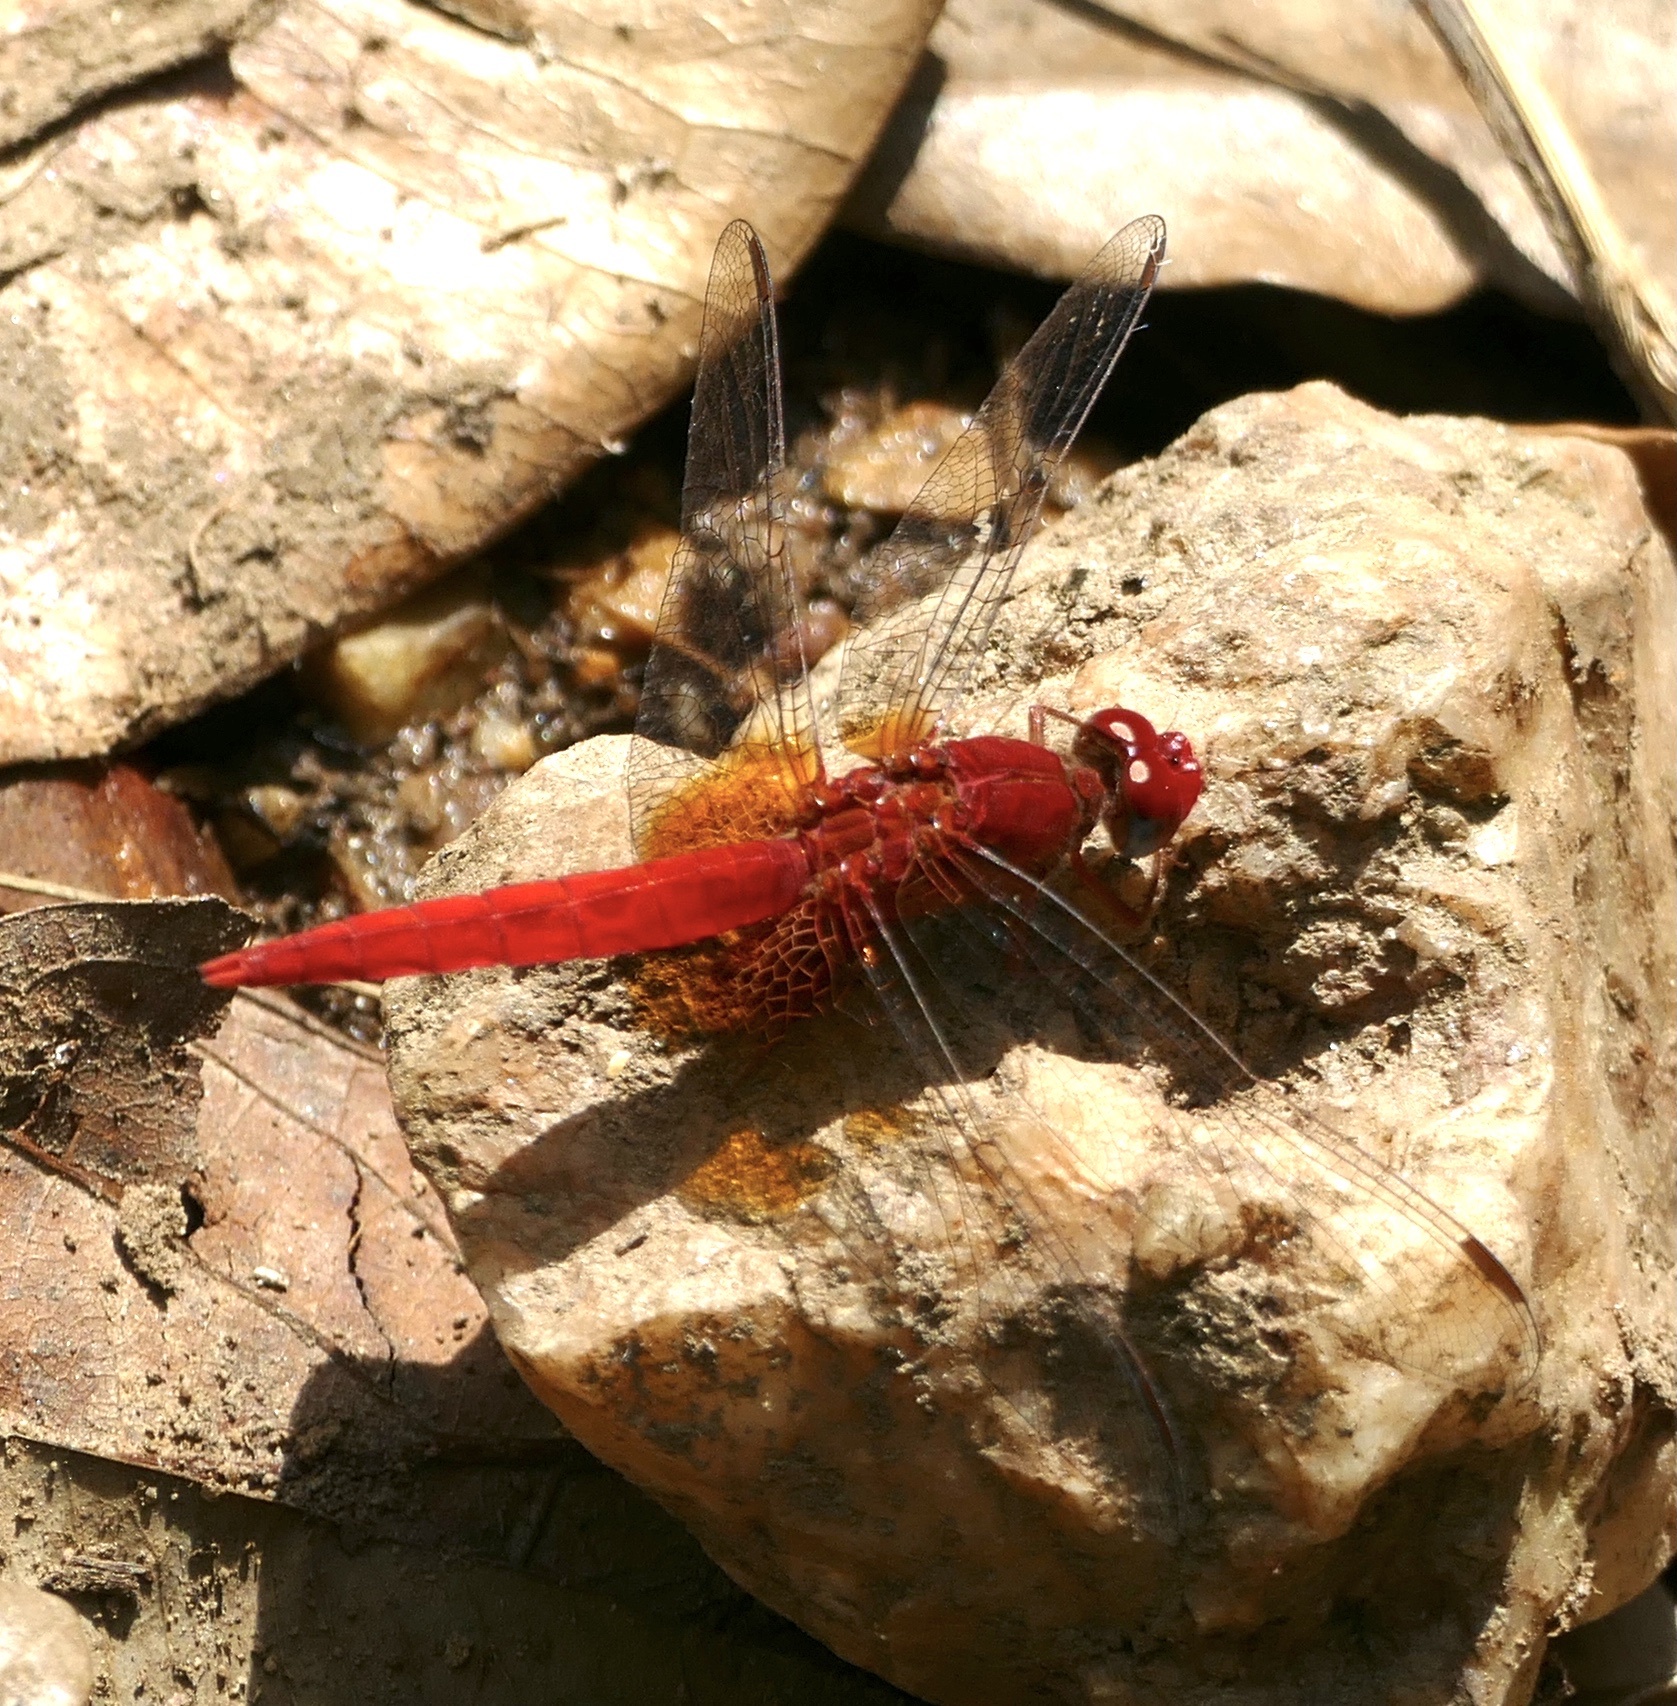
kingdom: Animalia
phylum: Arthropoda
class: Insecta
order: Odonata
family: Libellulidae
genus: Crocothemis
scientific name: Crocothemis erythraea
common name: Scarlet dragonfly
